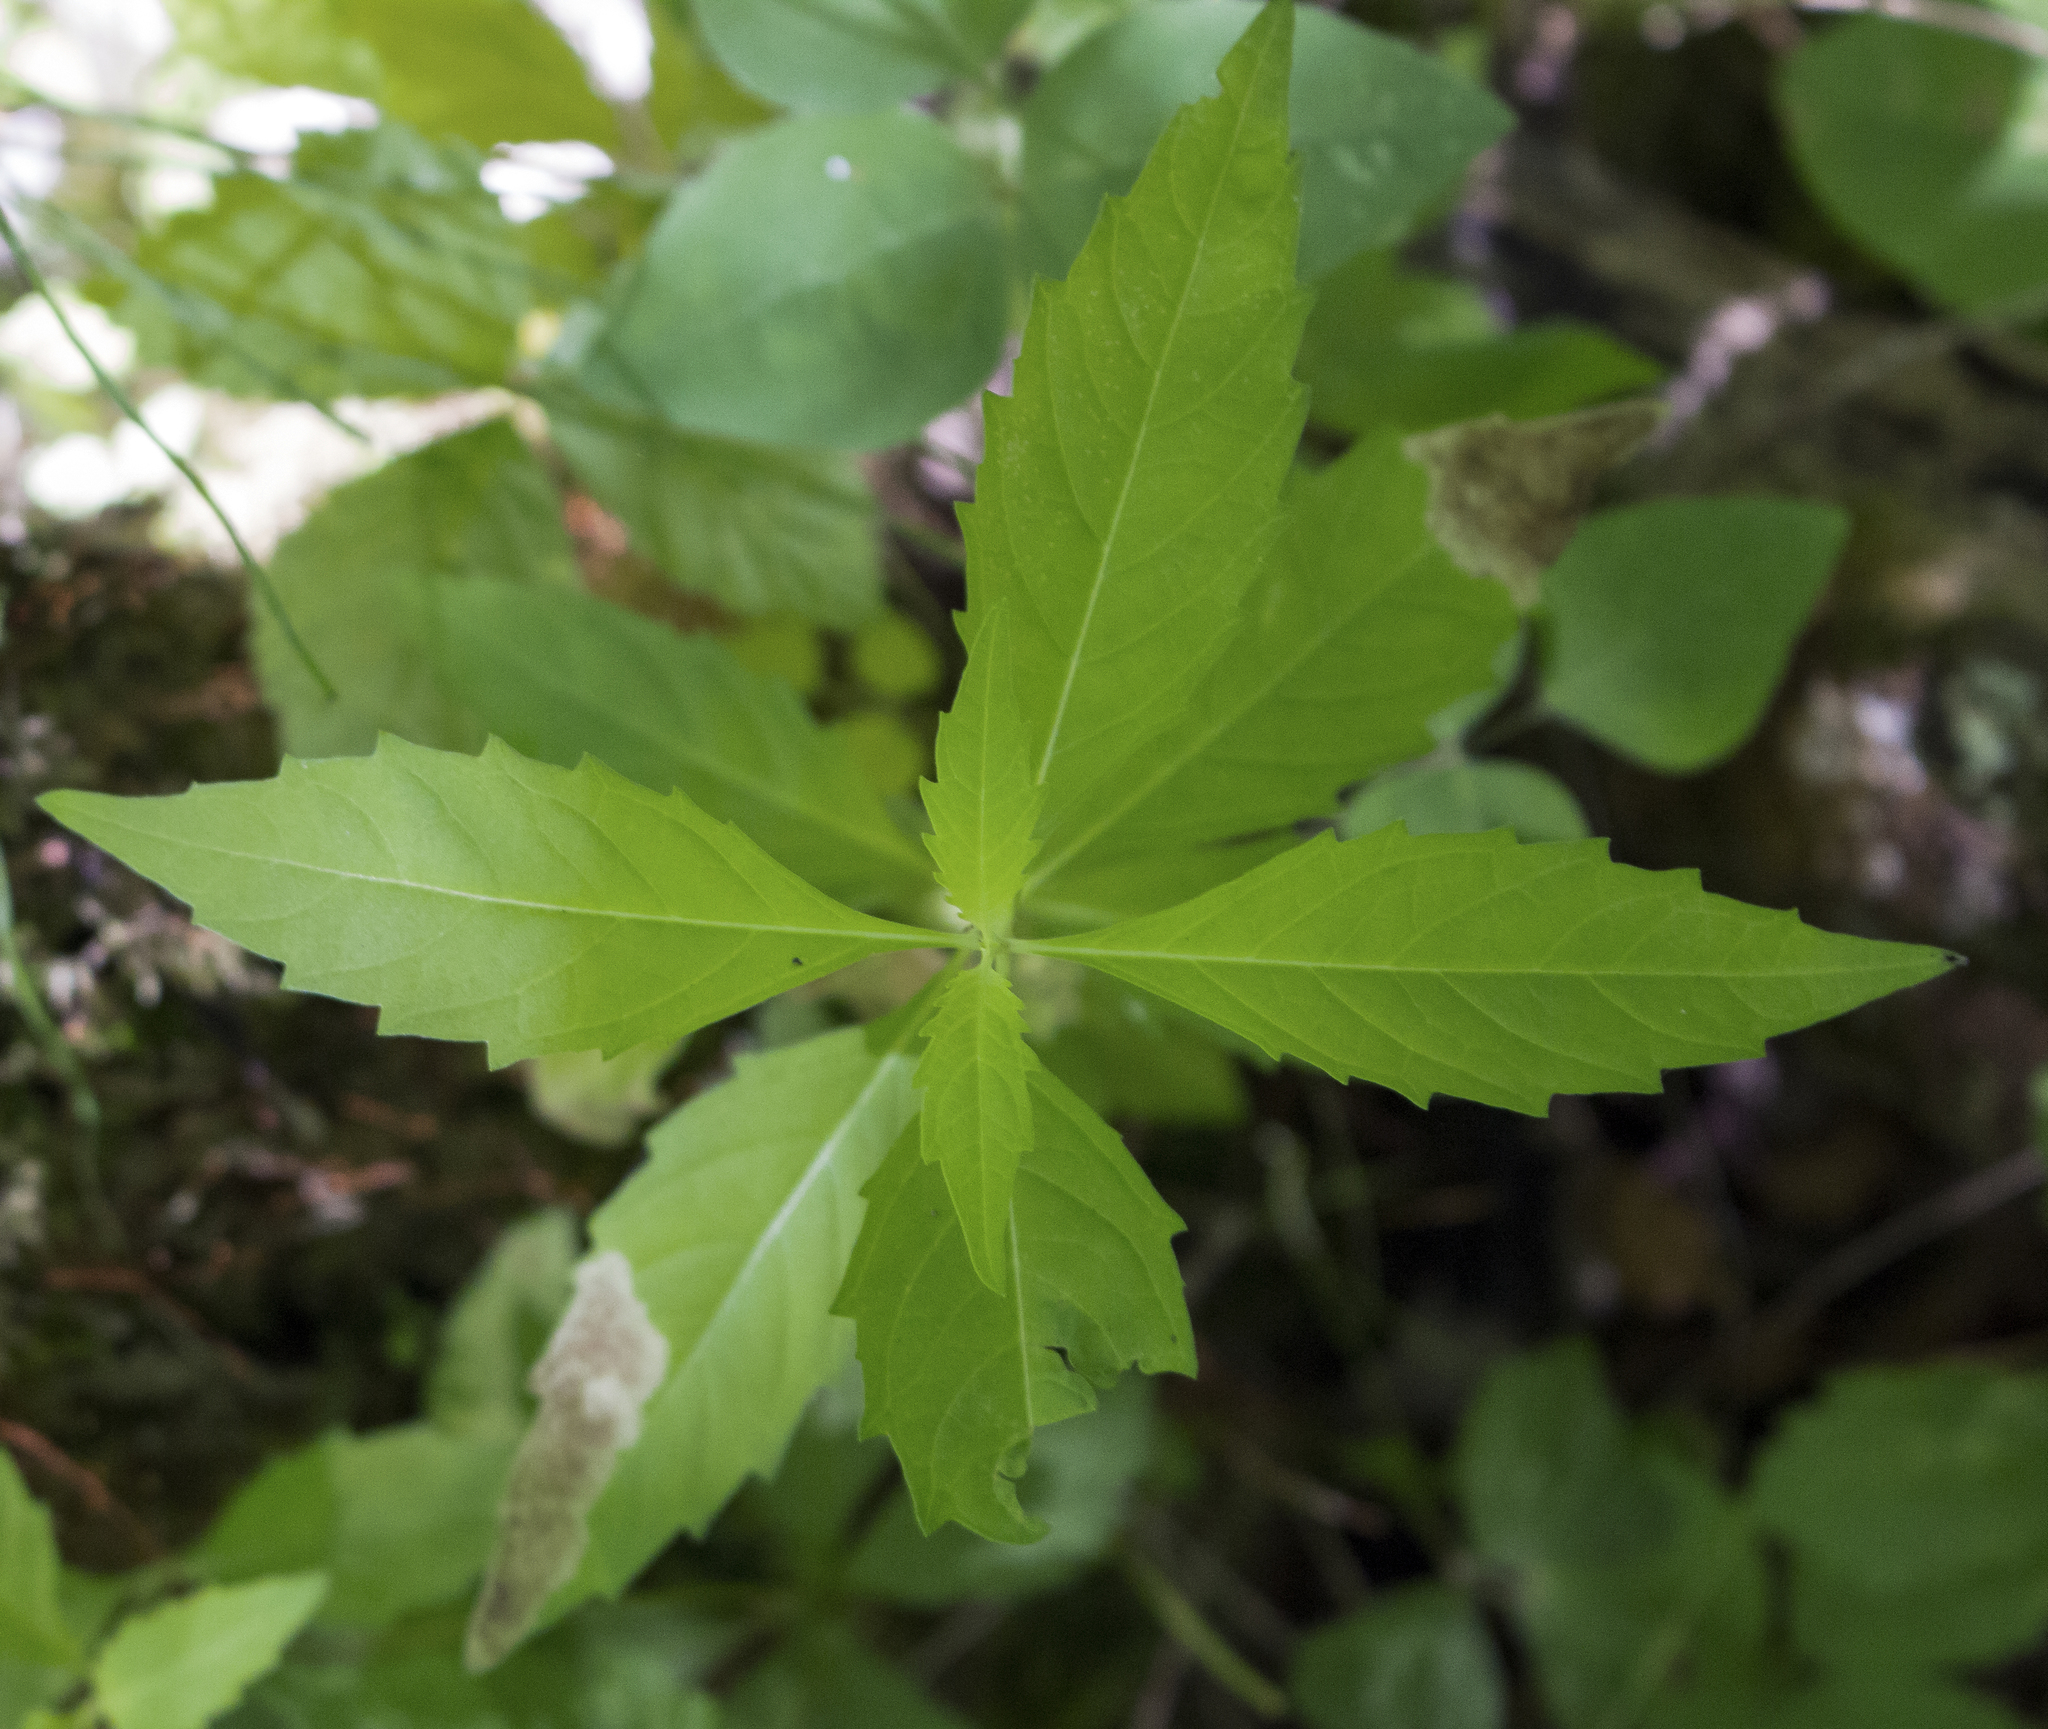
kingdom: Plantae
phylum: Tracheophyta
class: Magnoliopsida
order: Lamiales
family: Lamiaceae
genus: Lycopus
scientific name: Lycopus uniflorus
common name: Northern bugleweed
